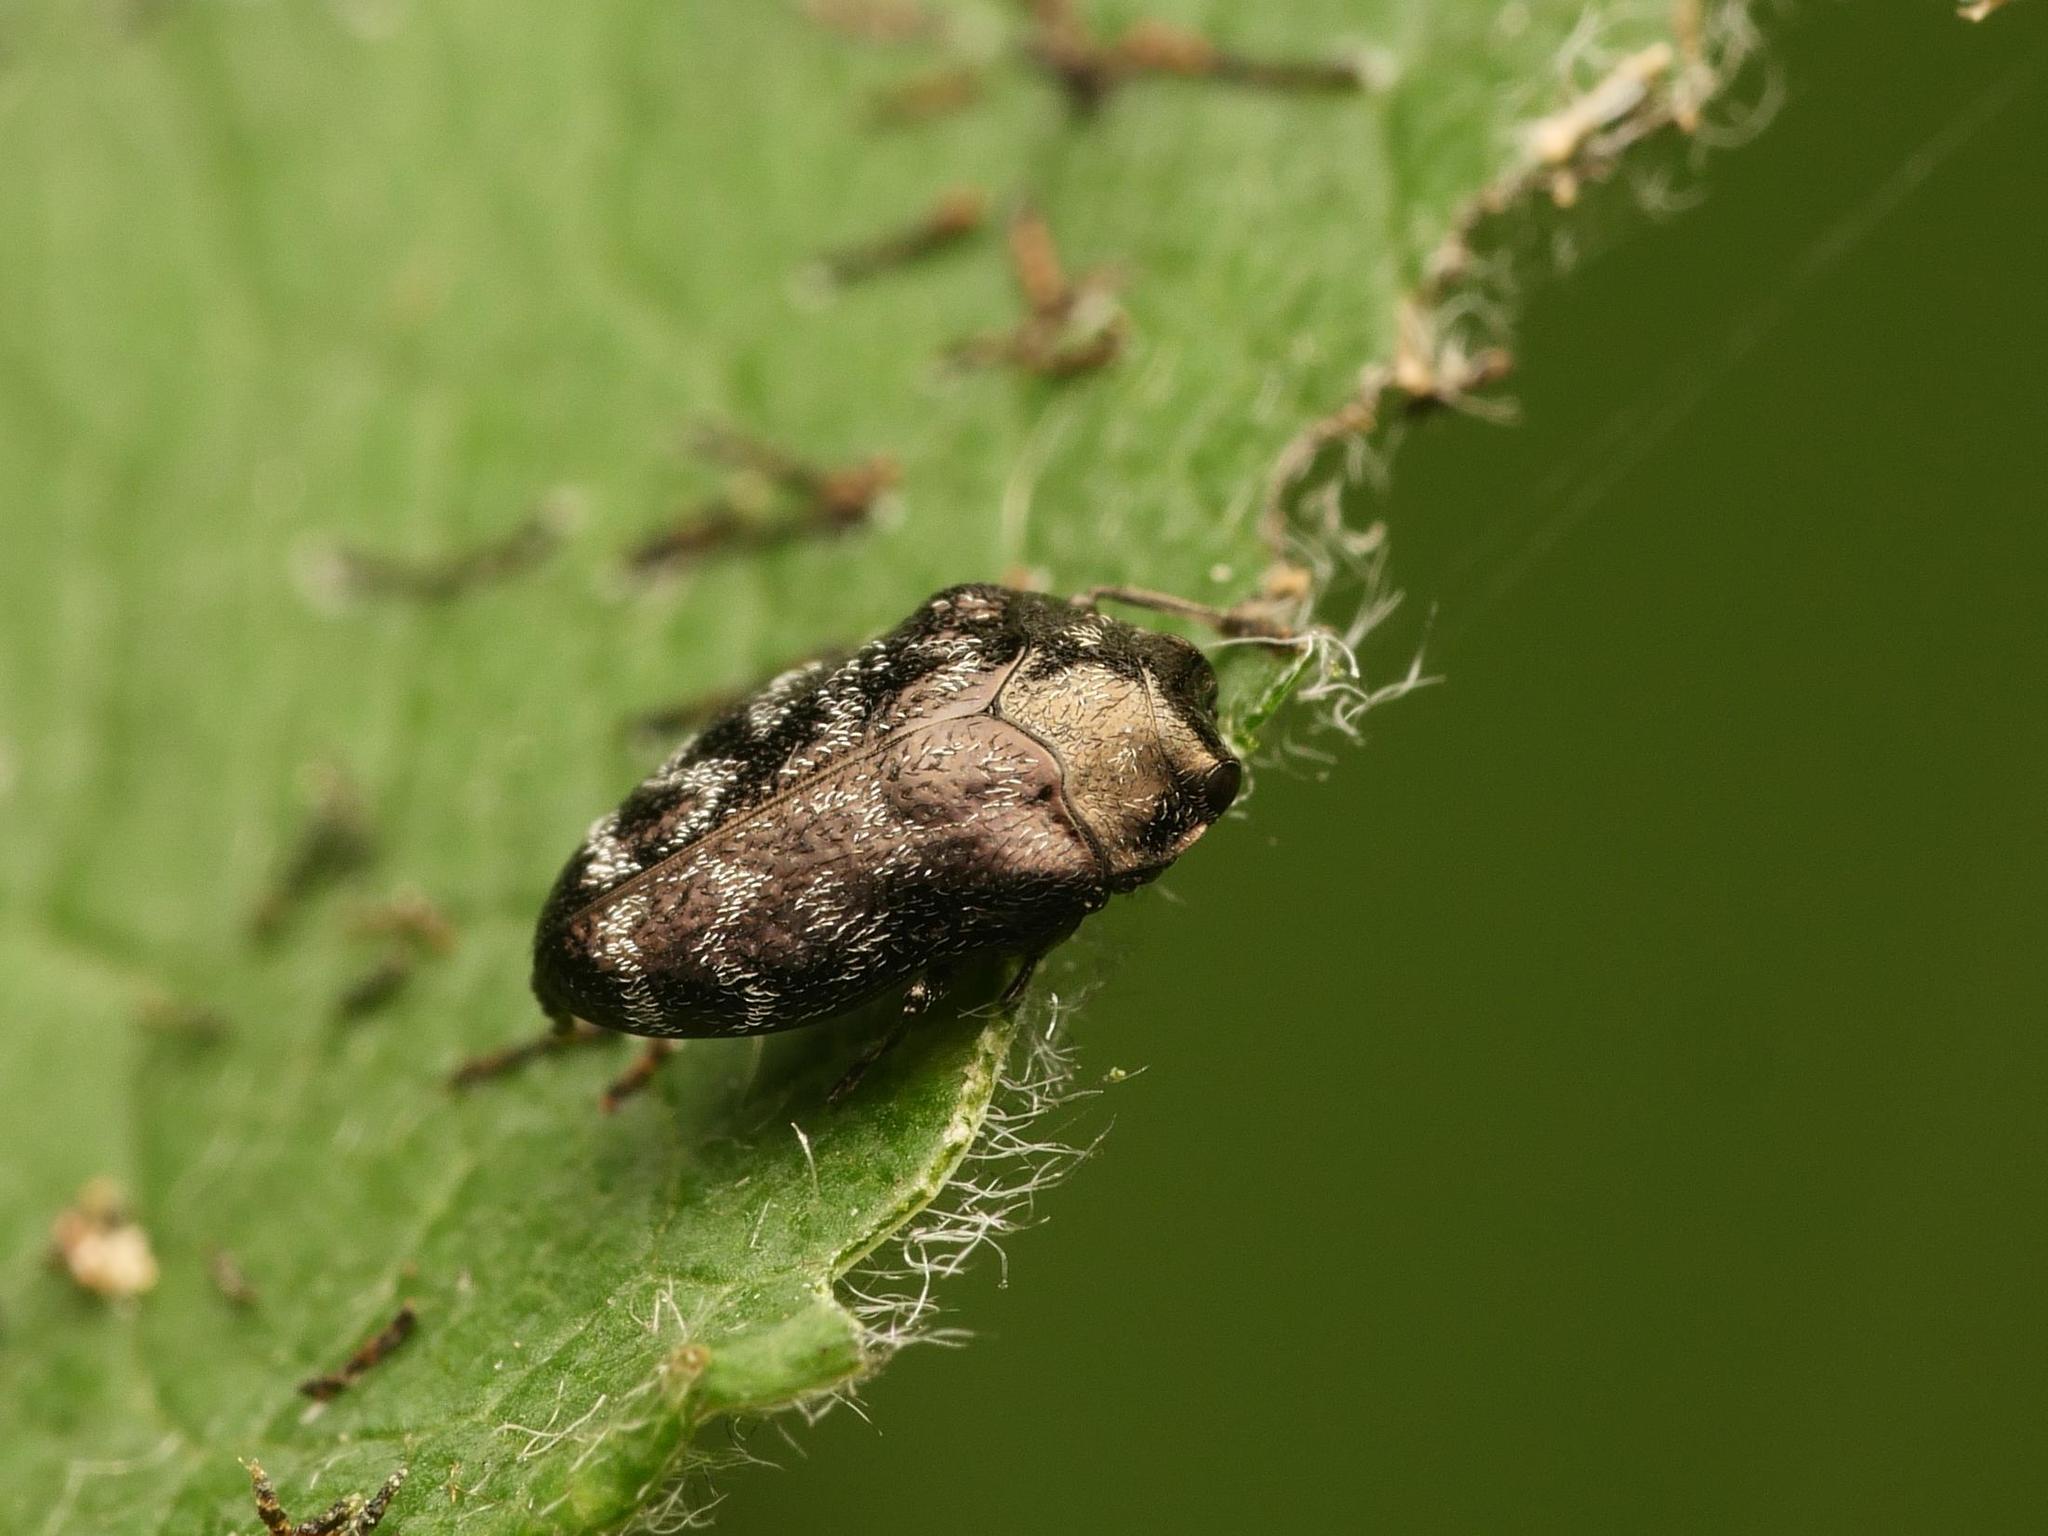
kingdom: Animalia
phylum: Arthropoda
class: Insecta
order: Coleoptera
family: Buprestidae
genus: Trachys
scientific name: Trachys minutus
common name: Metallic wood-boring beetle
